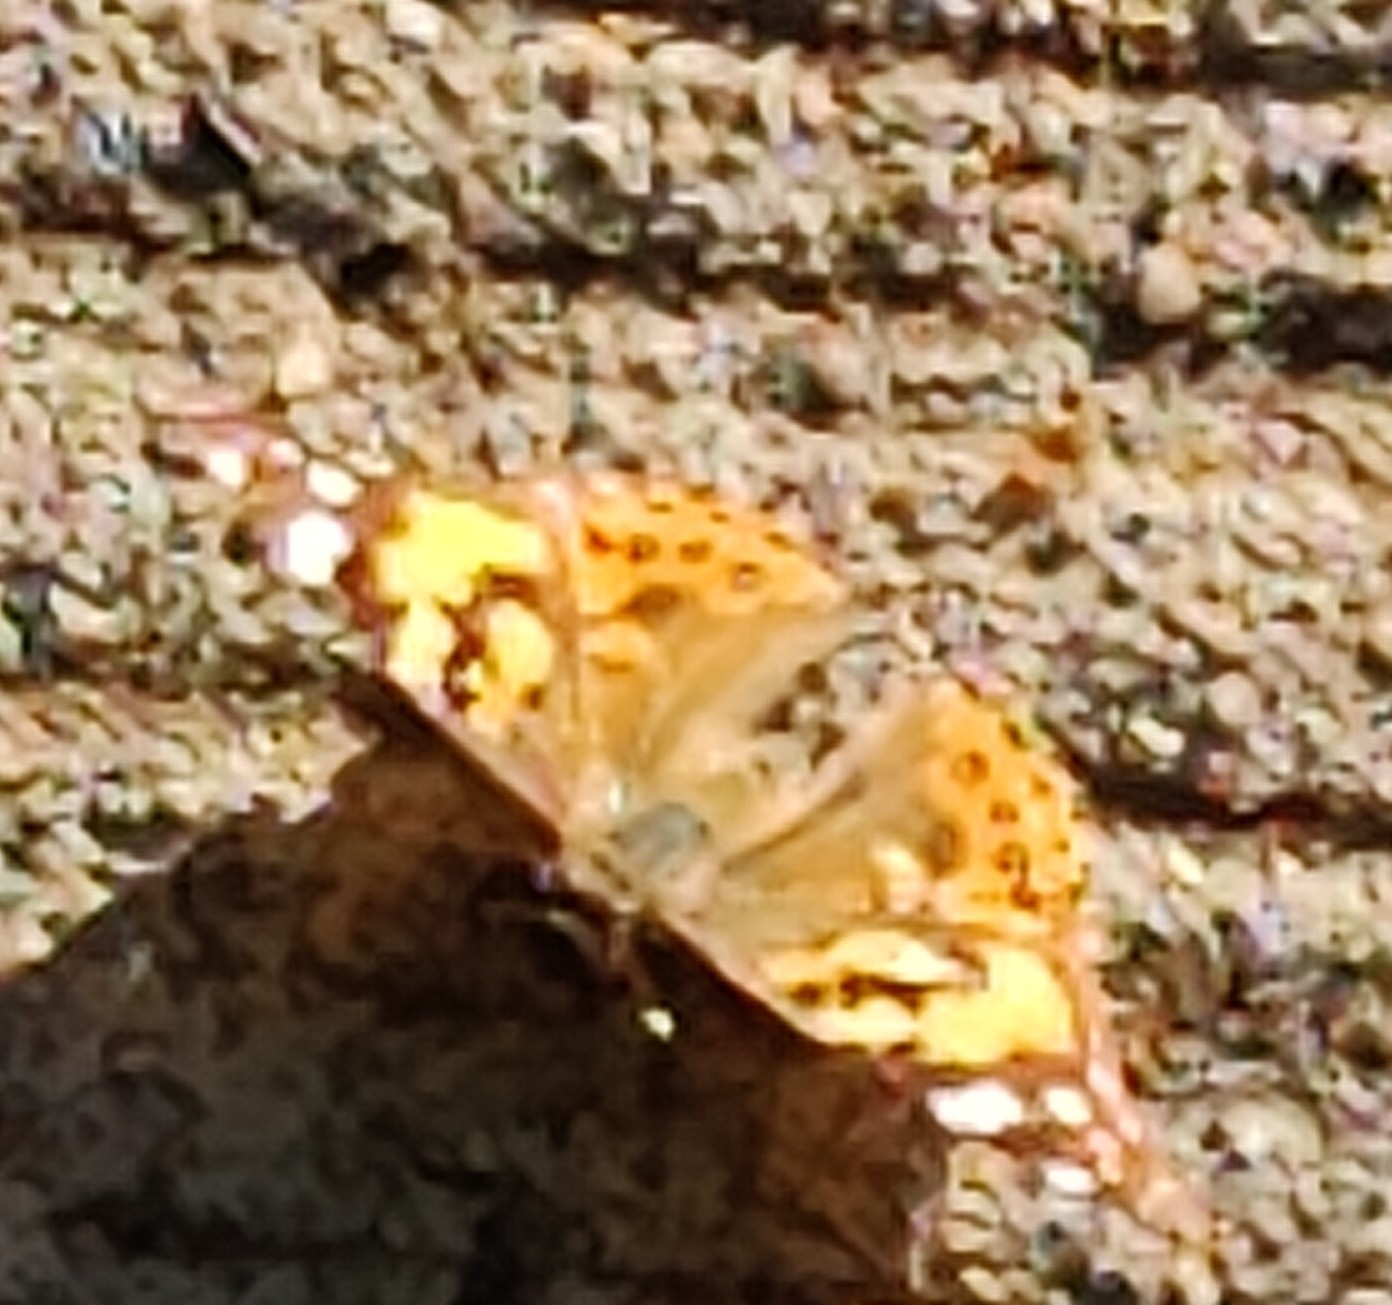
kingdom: Animalia
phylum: Arthropoda
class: Insecta
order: Lepidoptera
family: Nymphalidae
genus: Vanessa
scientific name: Vanessa kershawi
